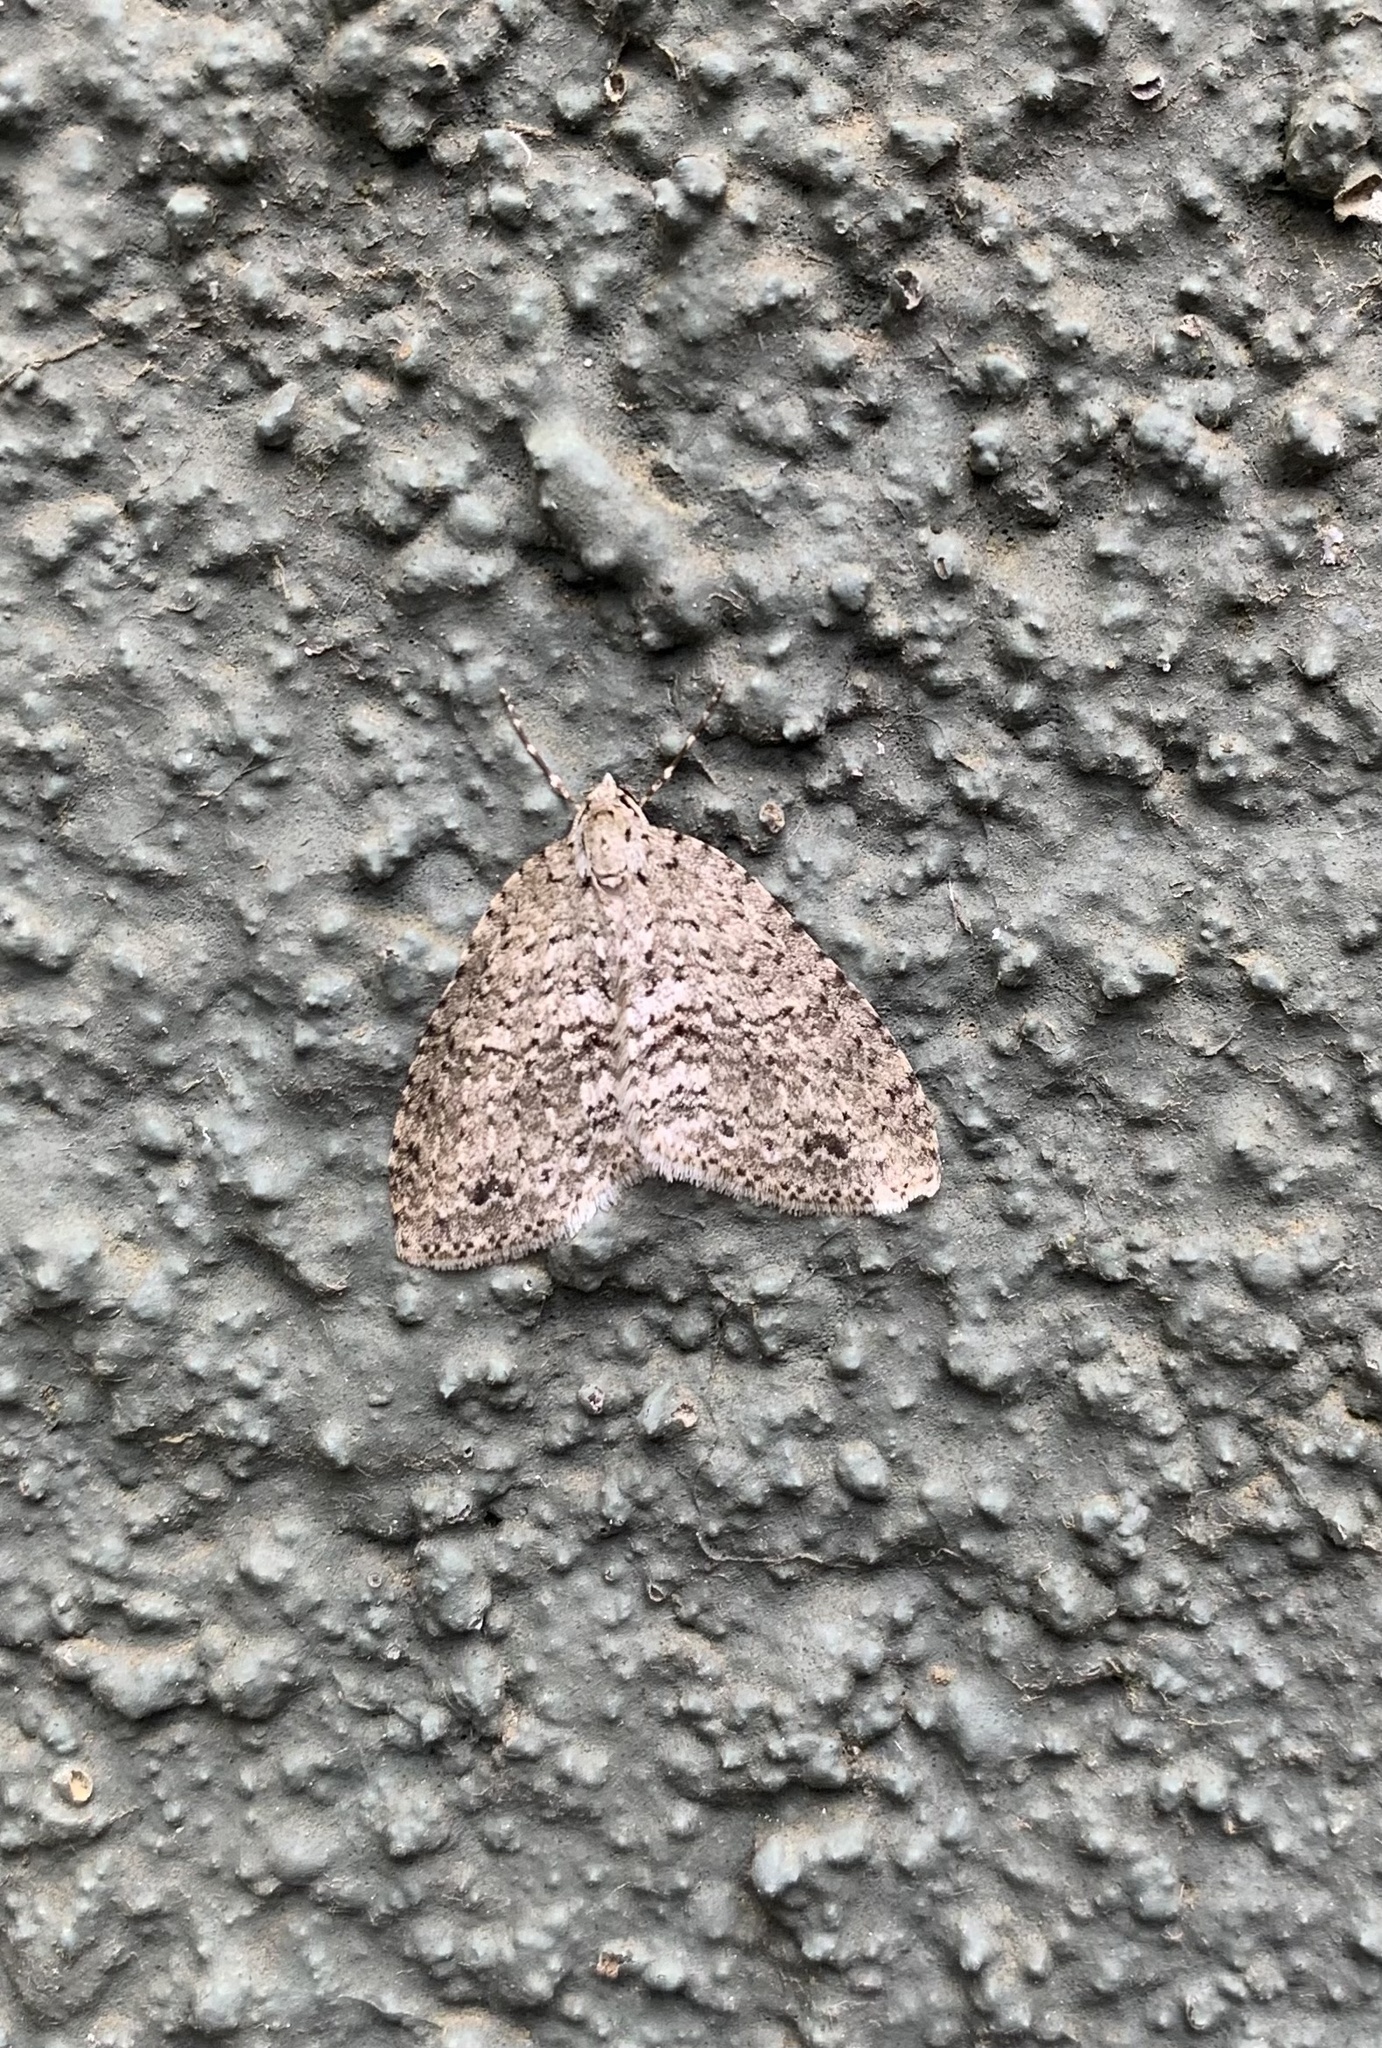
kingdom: Animalia
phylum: Arthropoda
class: Insecta
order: Lepidoptera
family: Geometridae
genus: Hoplosauris
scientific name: Hoplosauris
